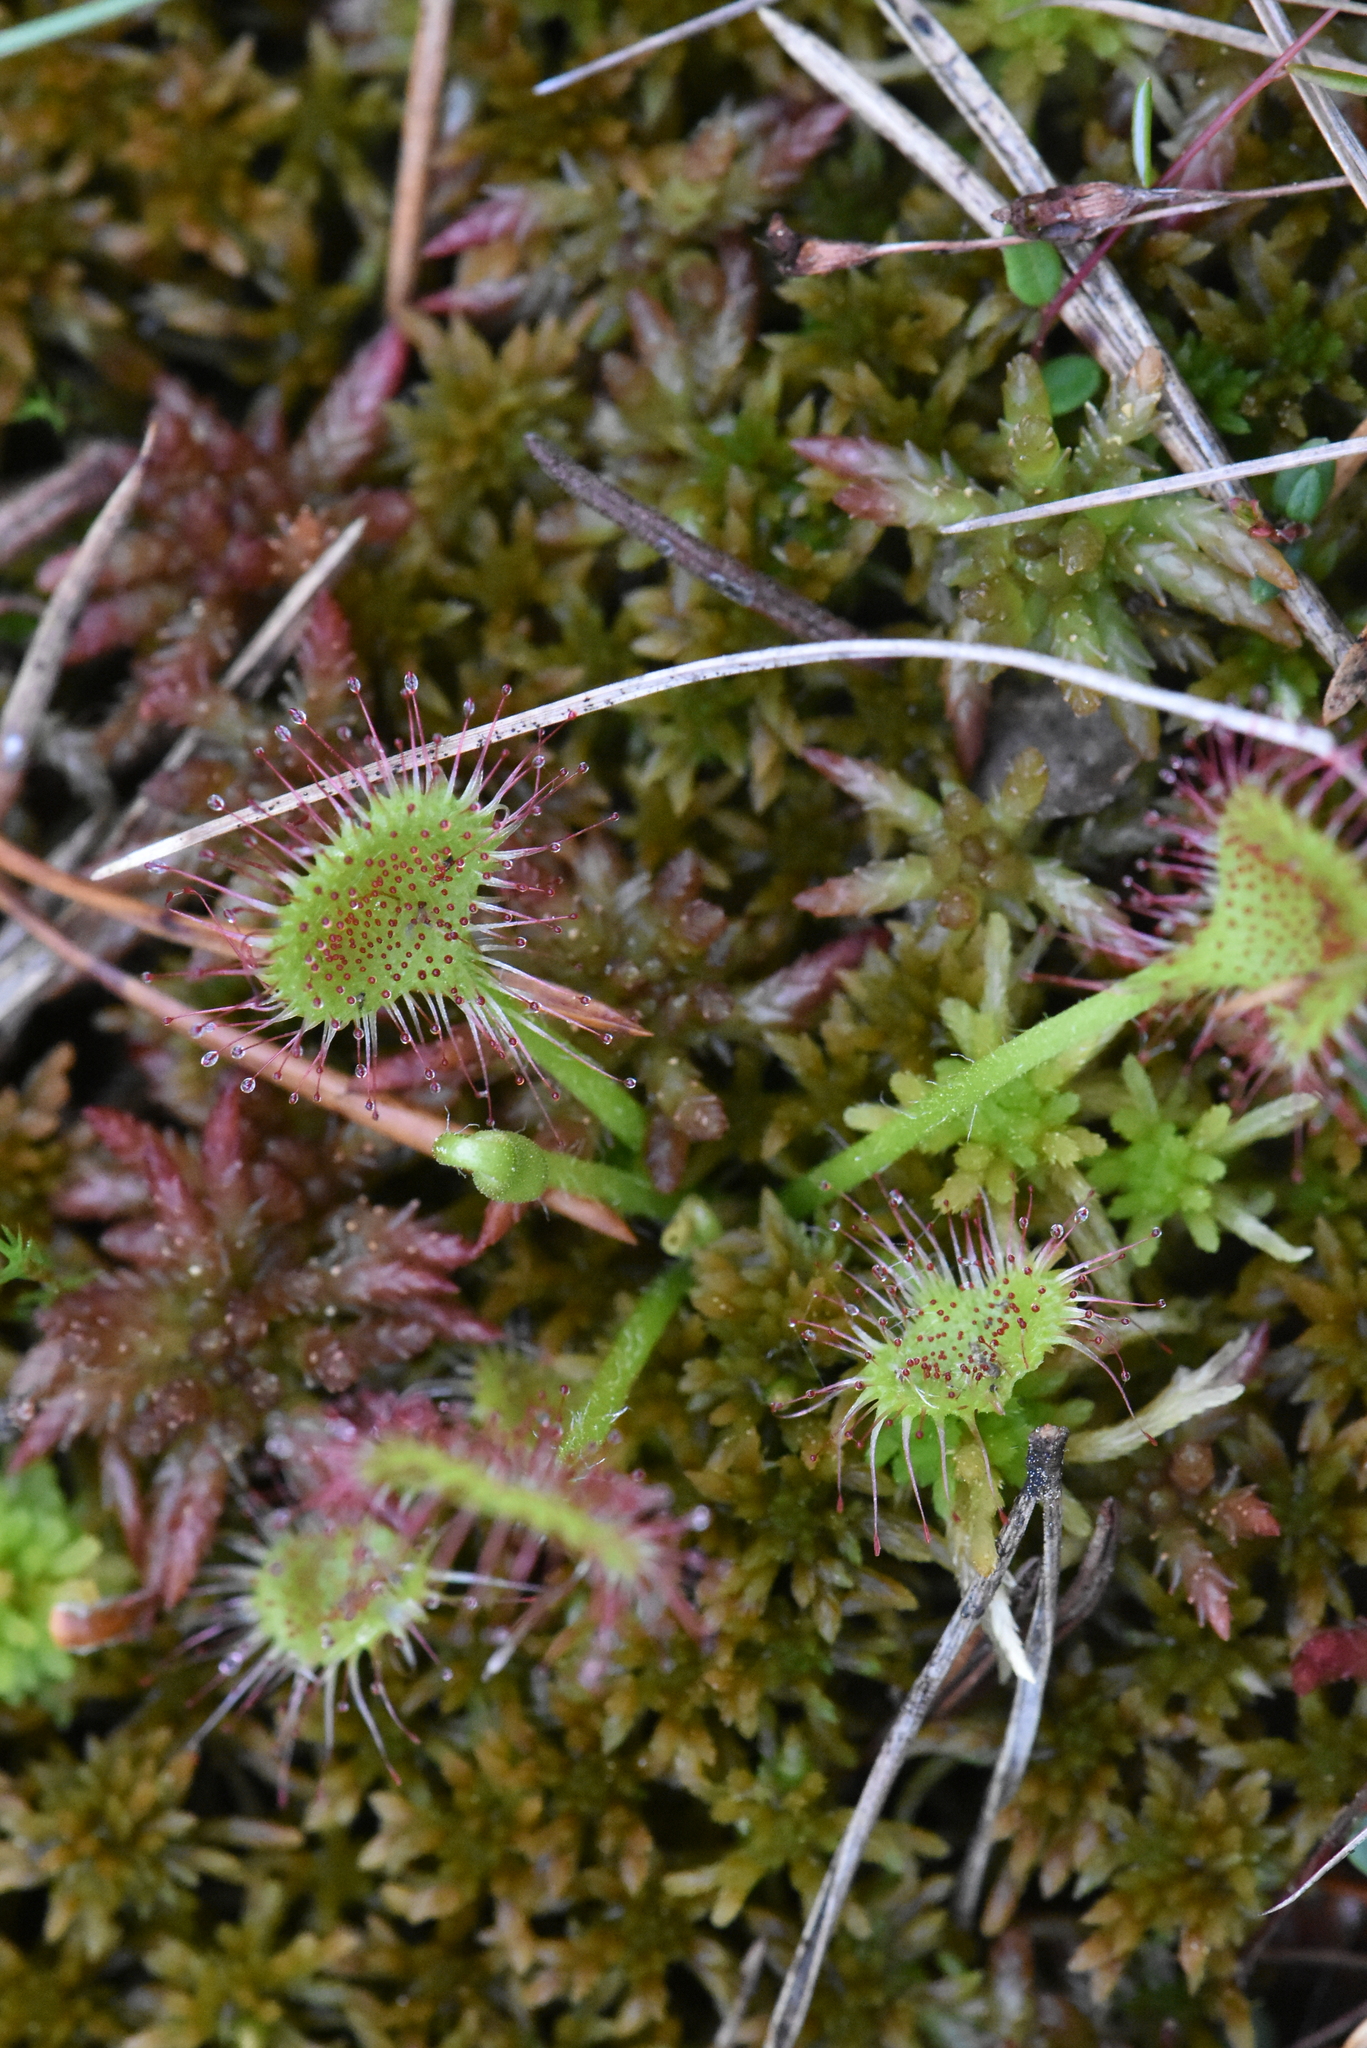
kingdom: Plantae
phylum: Tracheophyta
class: Magnoliopsida
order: Caryophyllales
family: Droseraceae
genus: Drosera
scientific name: Drosera rotundifolia
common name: Round-leaved sundew
